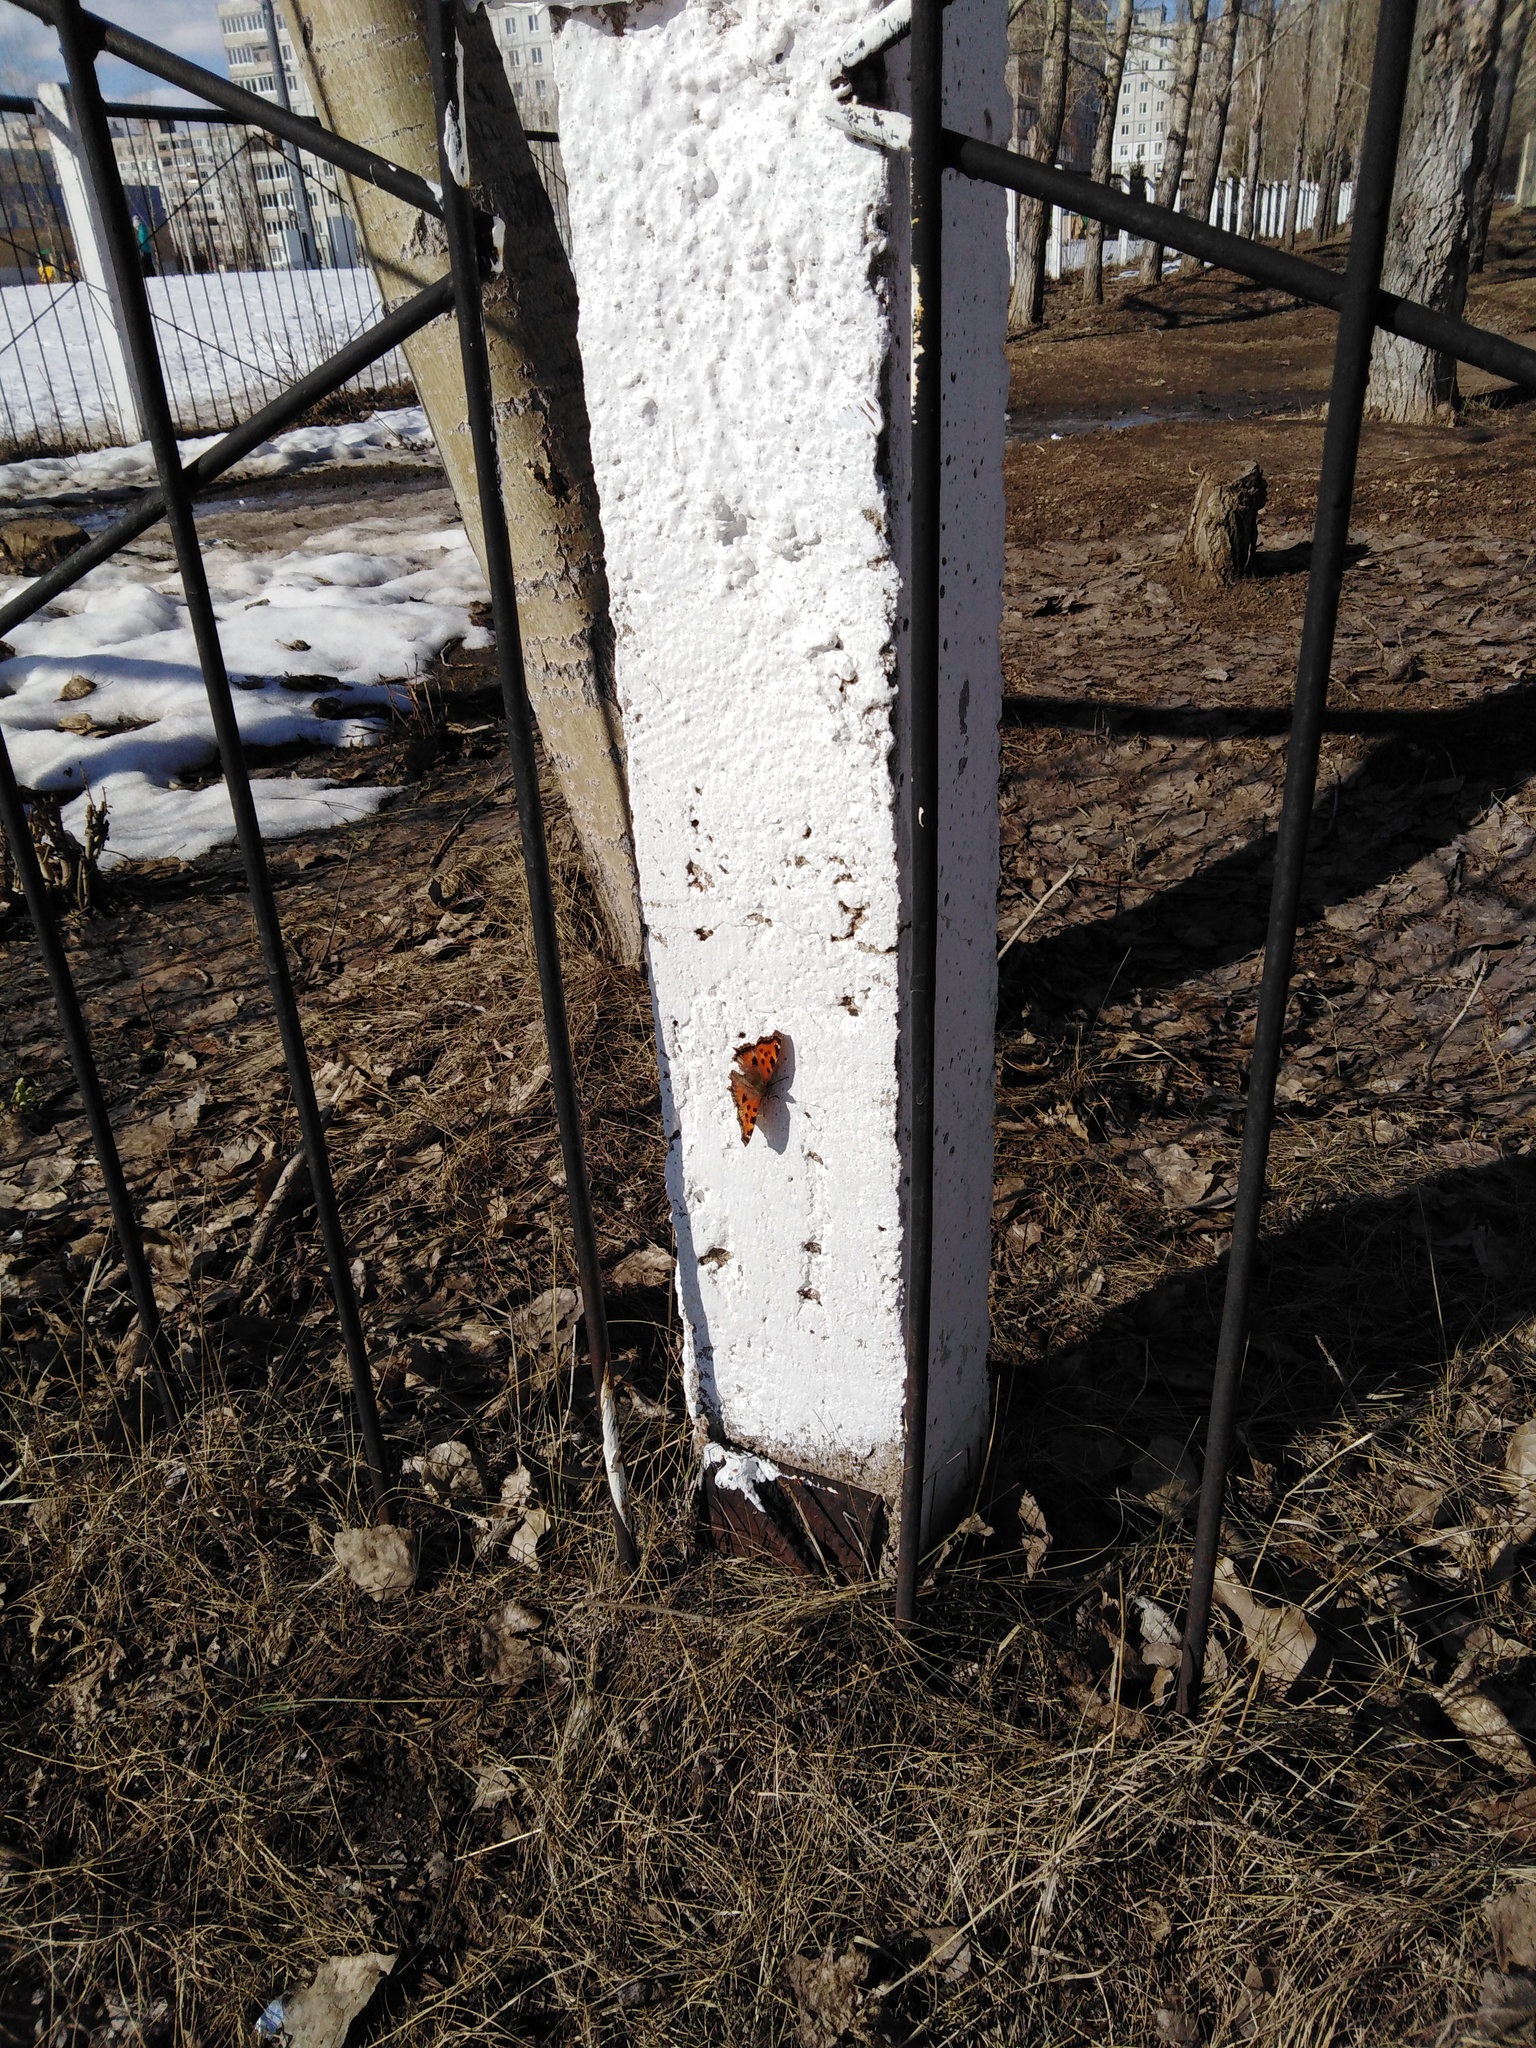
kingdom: Animalia
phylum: Arthropoda
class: Insecta
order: Lepidoptera
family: Nymphalidae
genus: Nymphalis
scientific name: Nymphalis xanthomelas
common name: Scarce tortoiseshell
